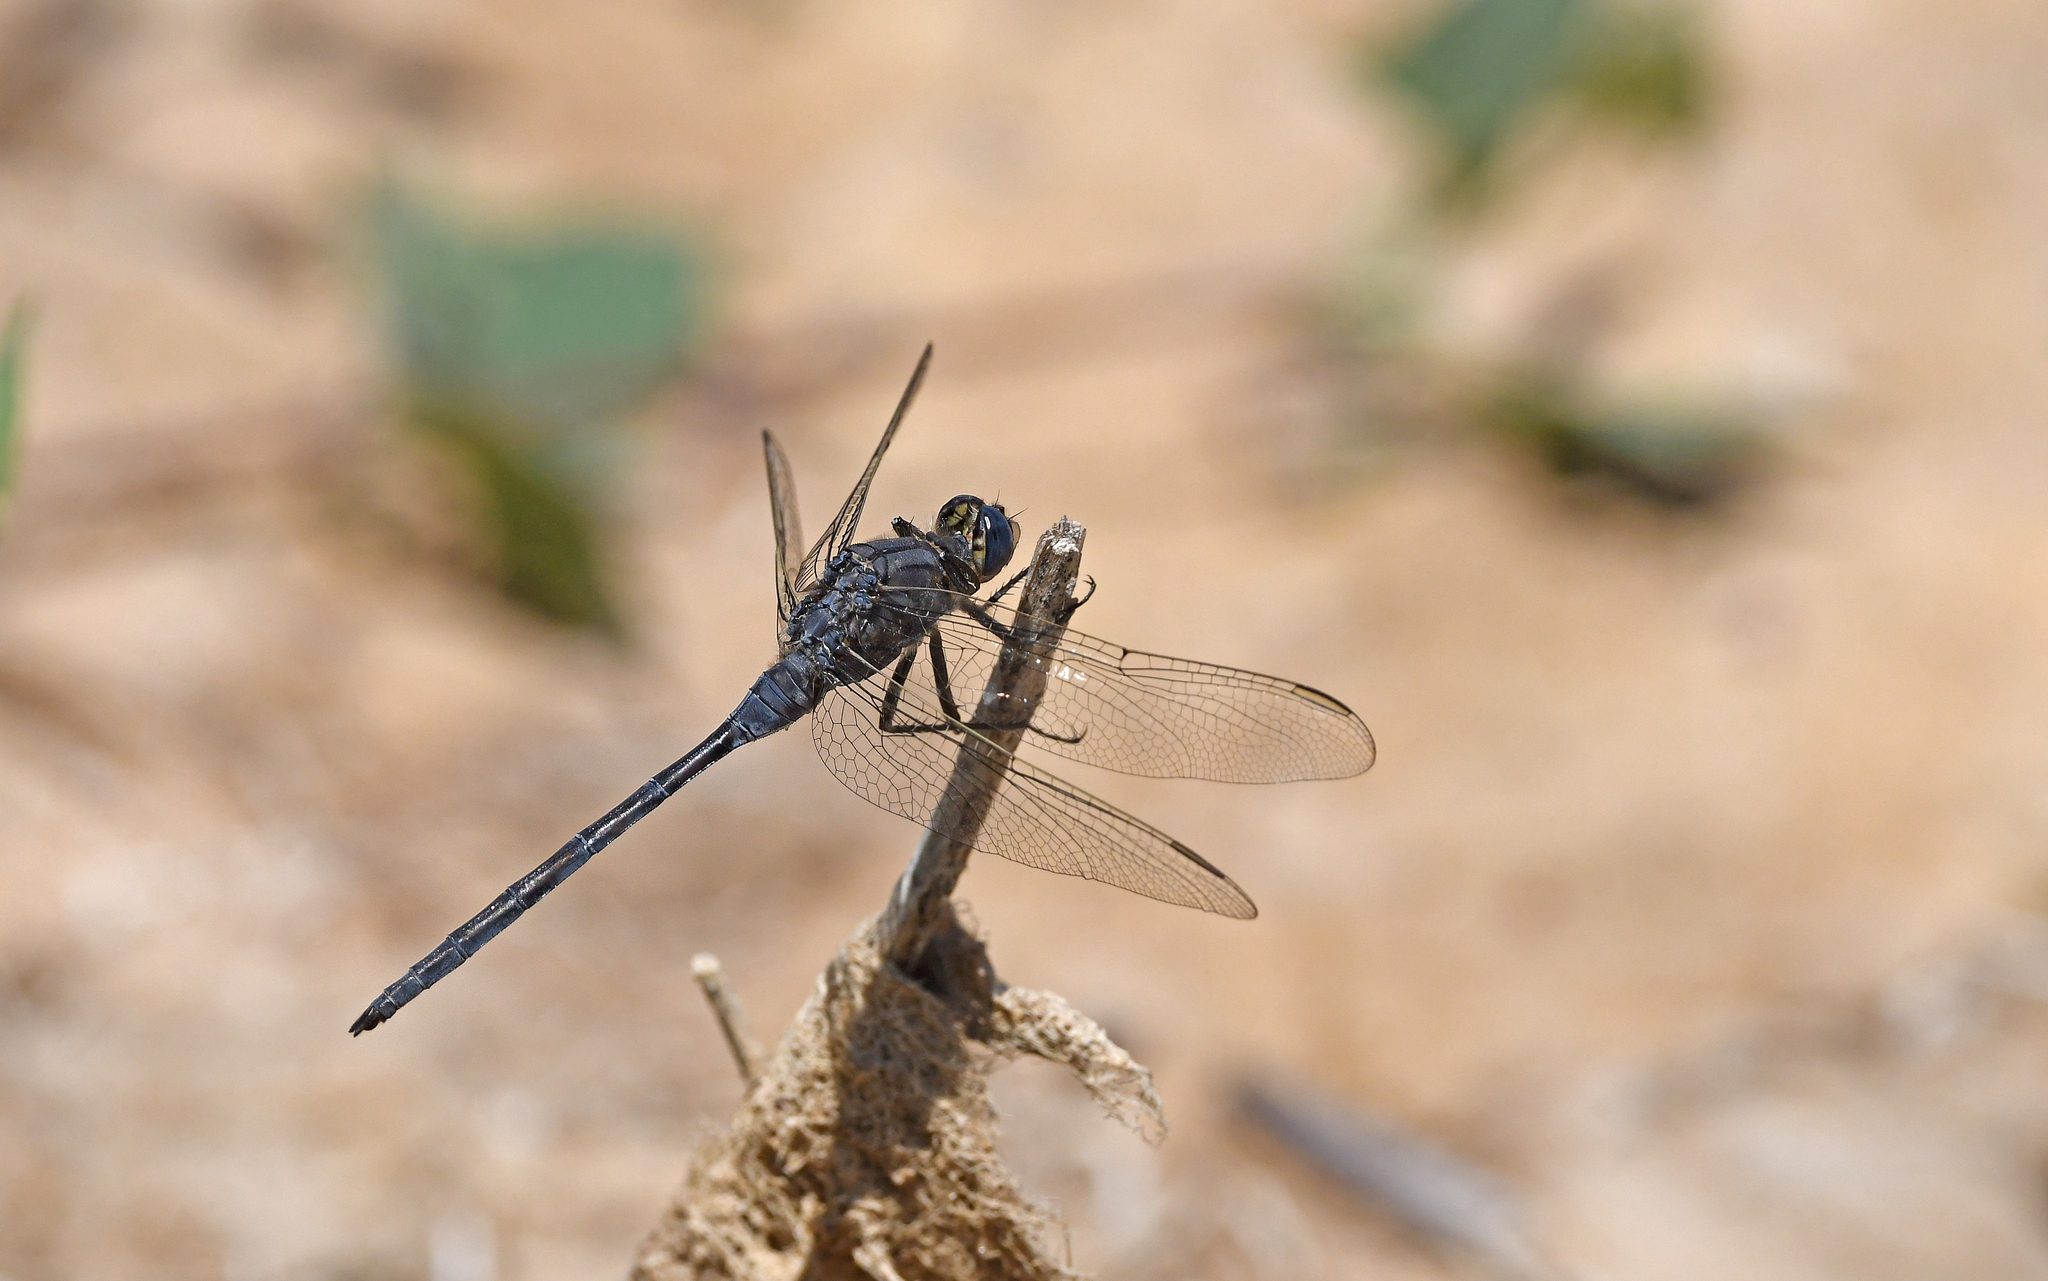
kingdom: Animalia
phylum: Arthropoda
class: Insecta
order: Odonata
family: Libellulidae
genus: Orthetrum
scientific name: Orthetrum trinacria
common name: Long skimmer
